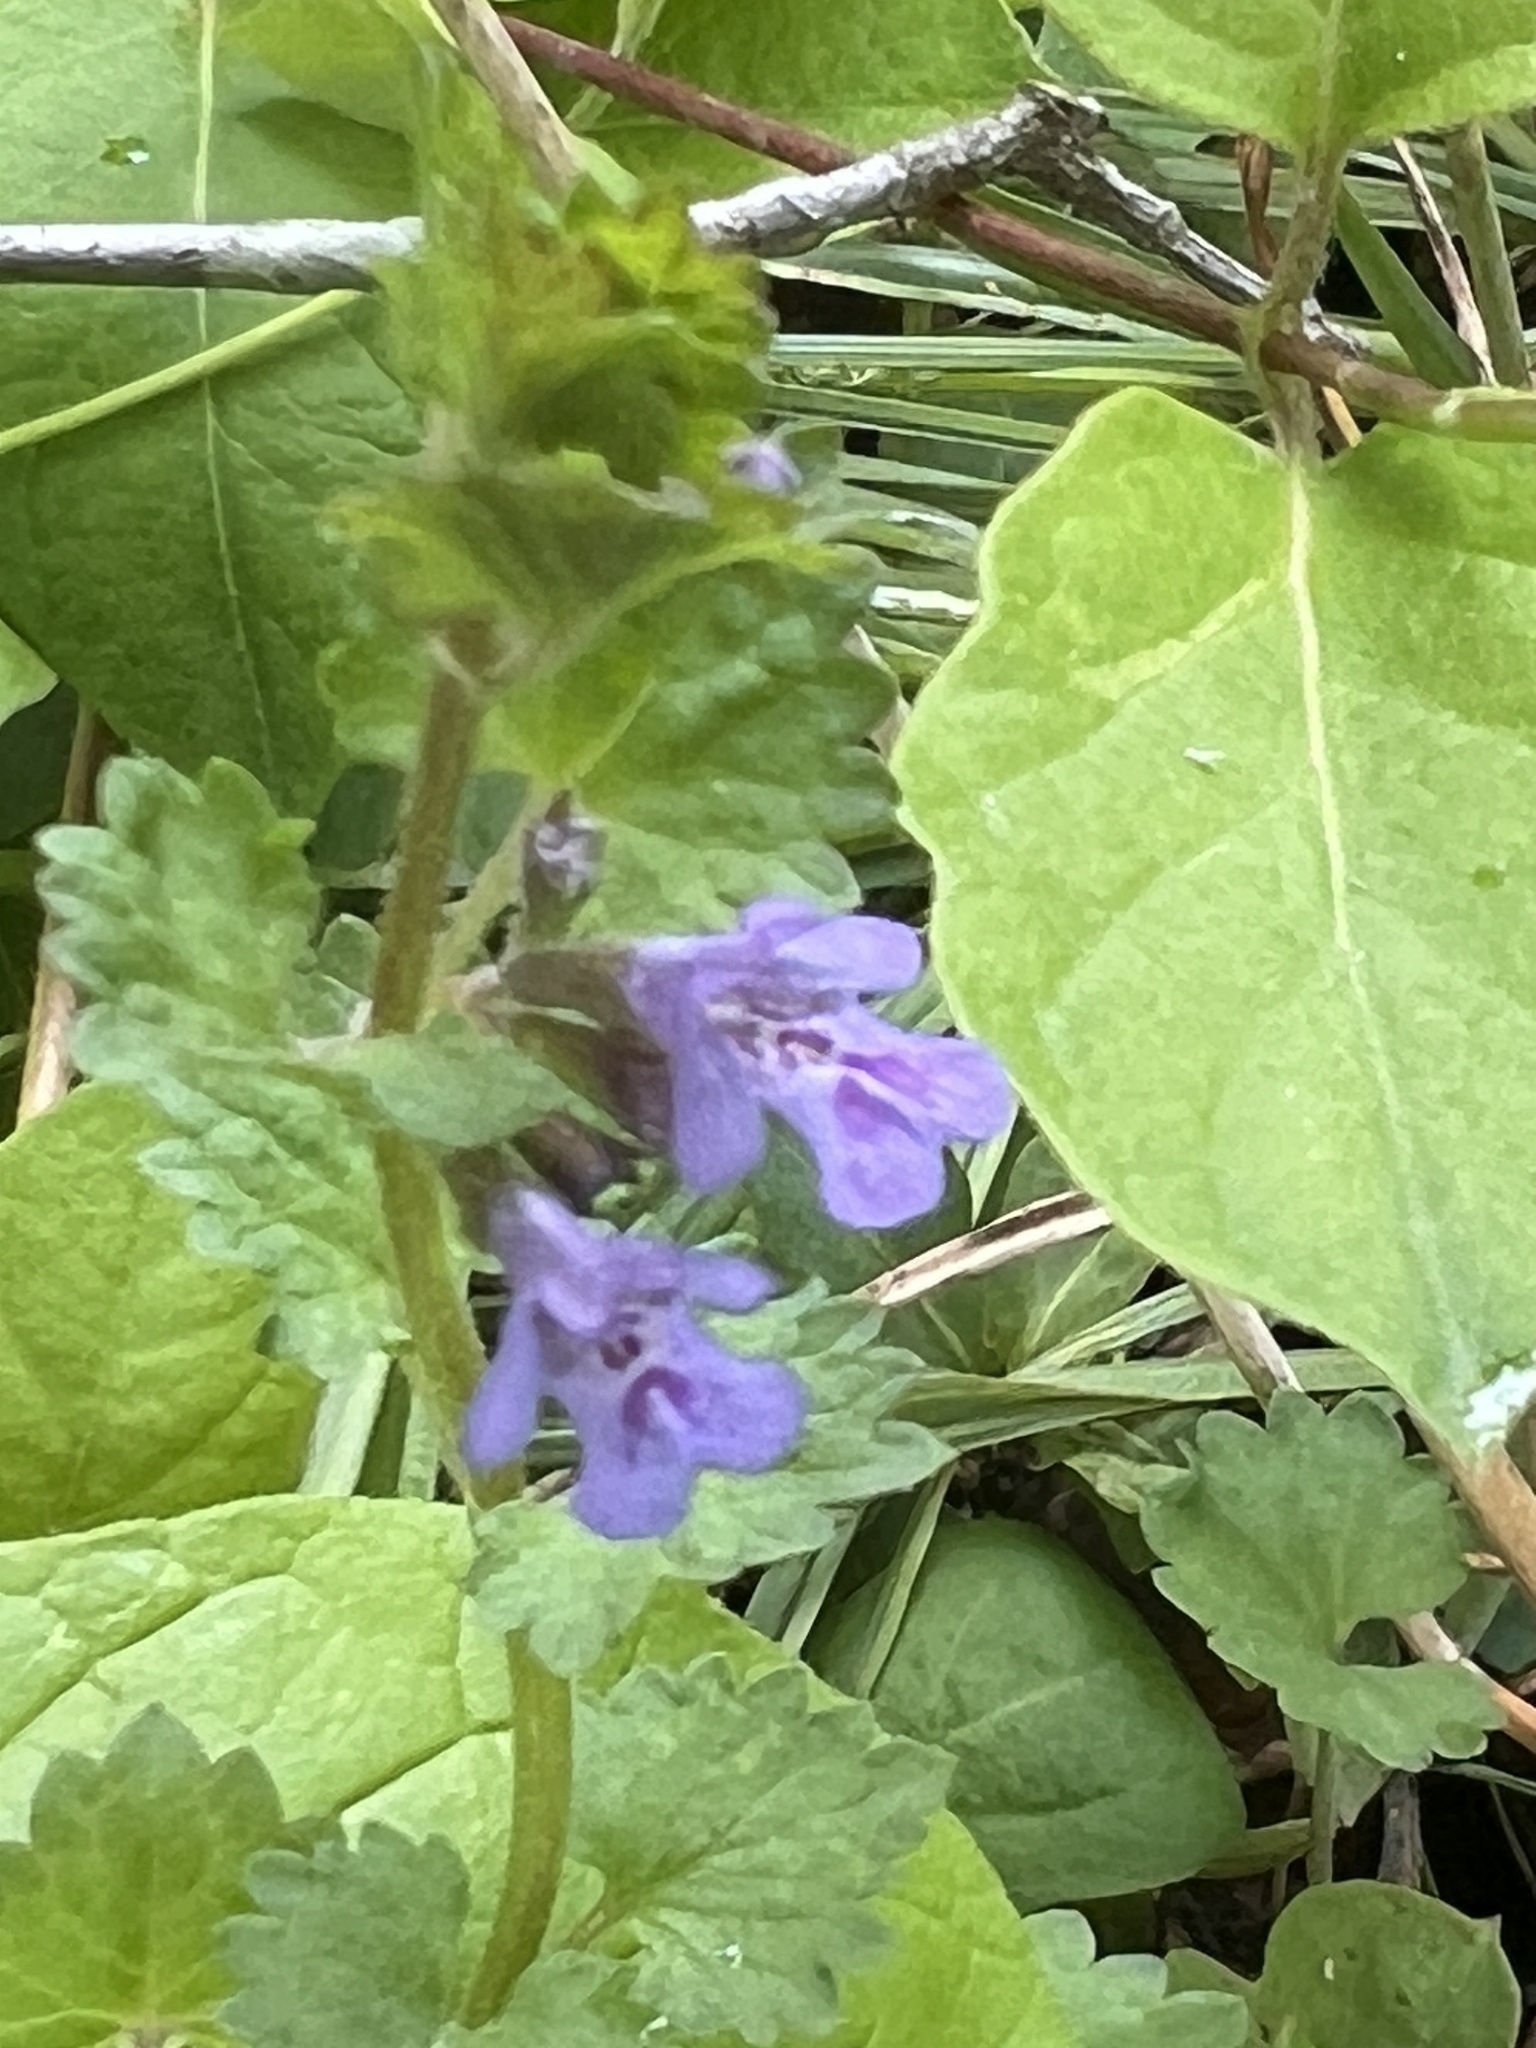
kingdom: Plantae
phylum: Tracheophyta
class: Magnoliopsida
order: Lamiales
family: Lamiaceae
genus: Glechoma
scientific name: Glechoma hederacea
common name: Ground ivy
